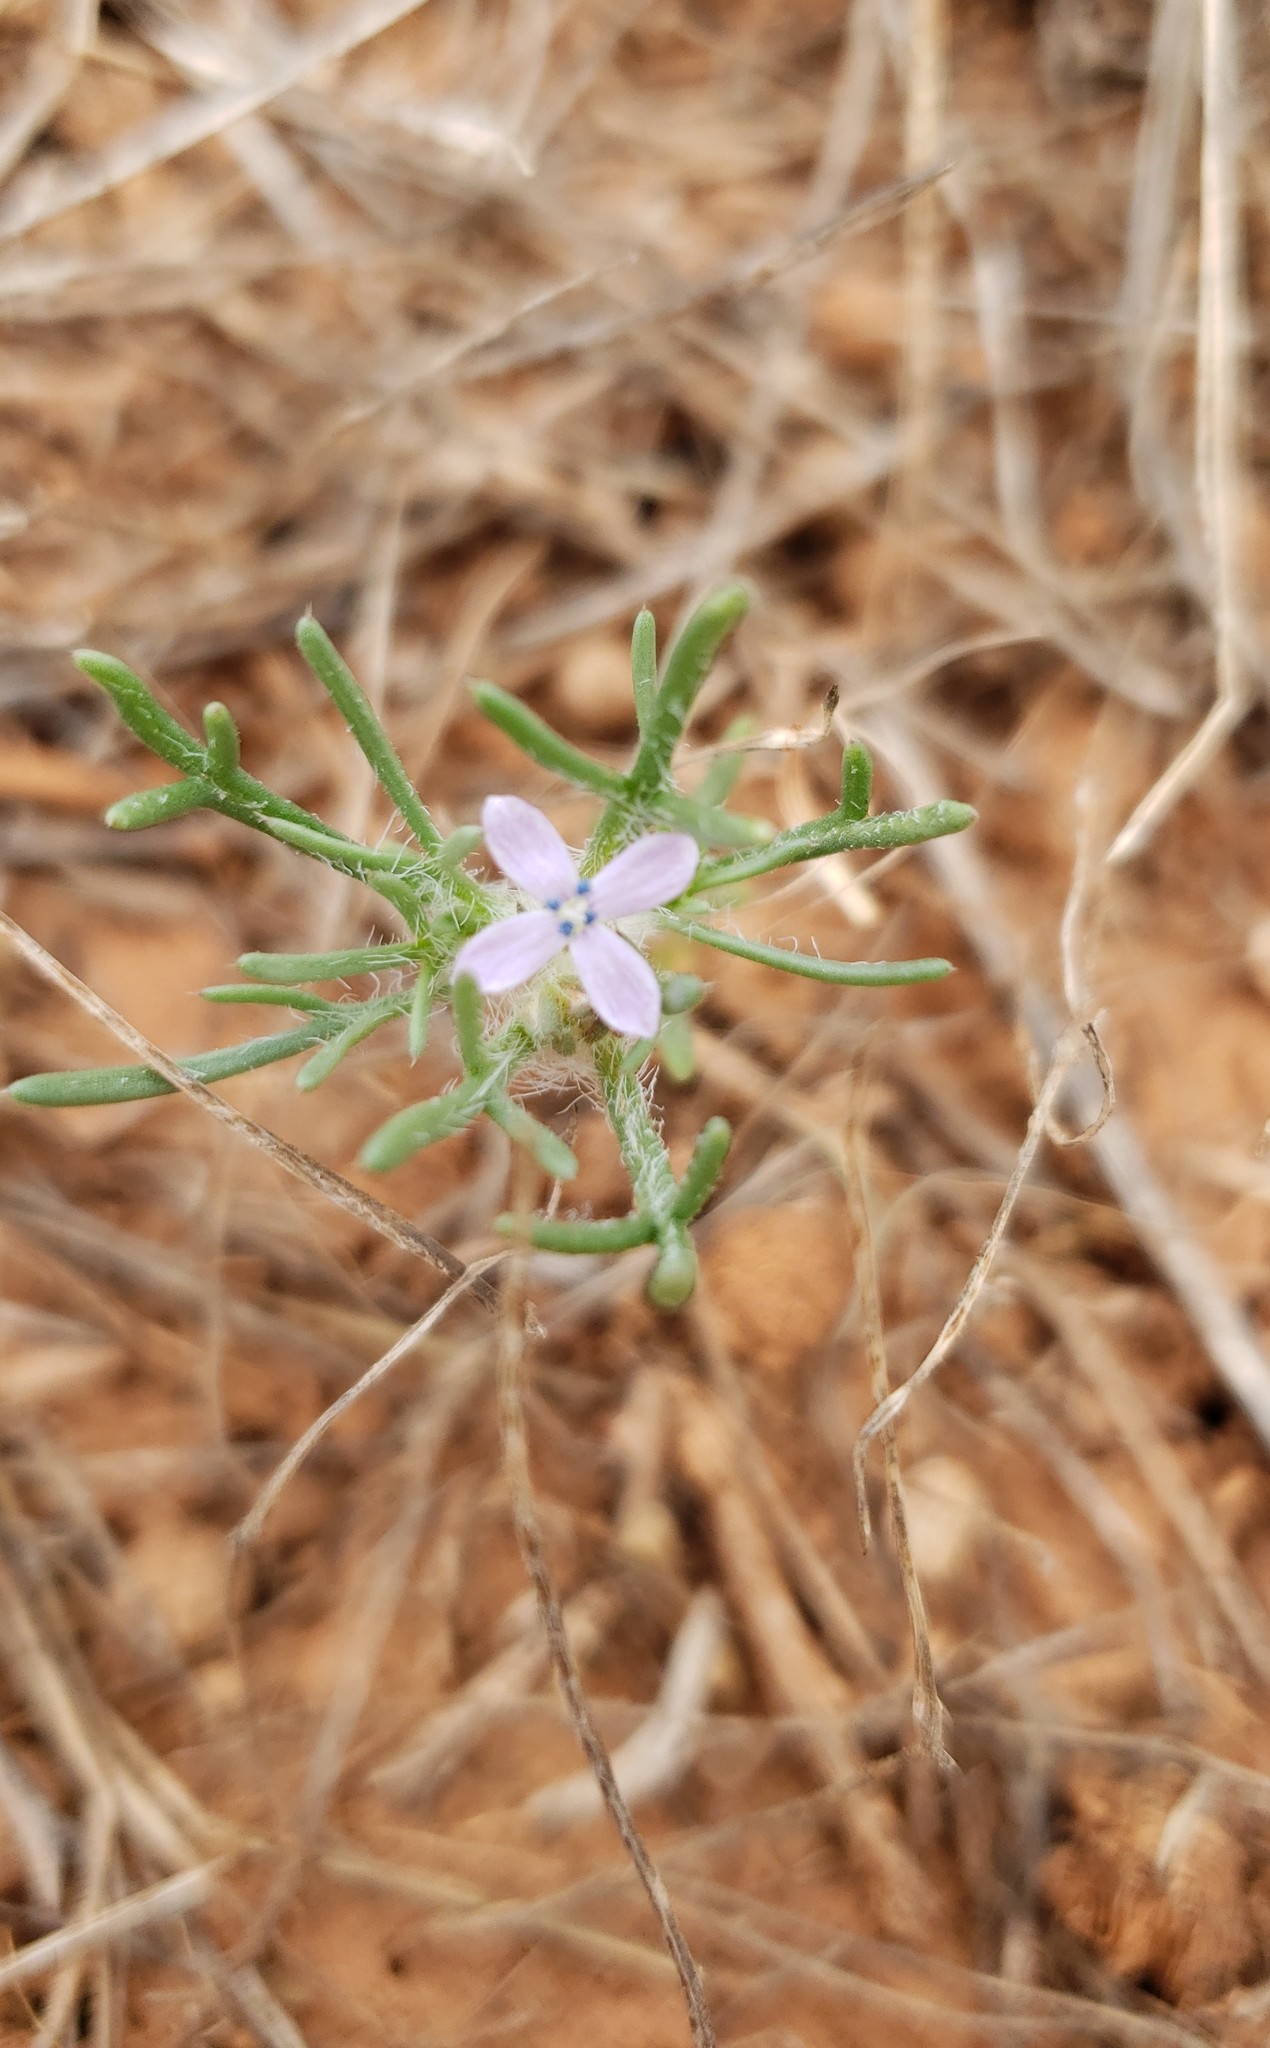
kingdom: Plantae
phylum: Tracheophyta
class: Magnoliopsida
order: Ericales
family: Polemoniaceae
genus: Ipomopsis
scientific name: Ipomopsis pumila
